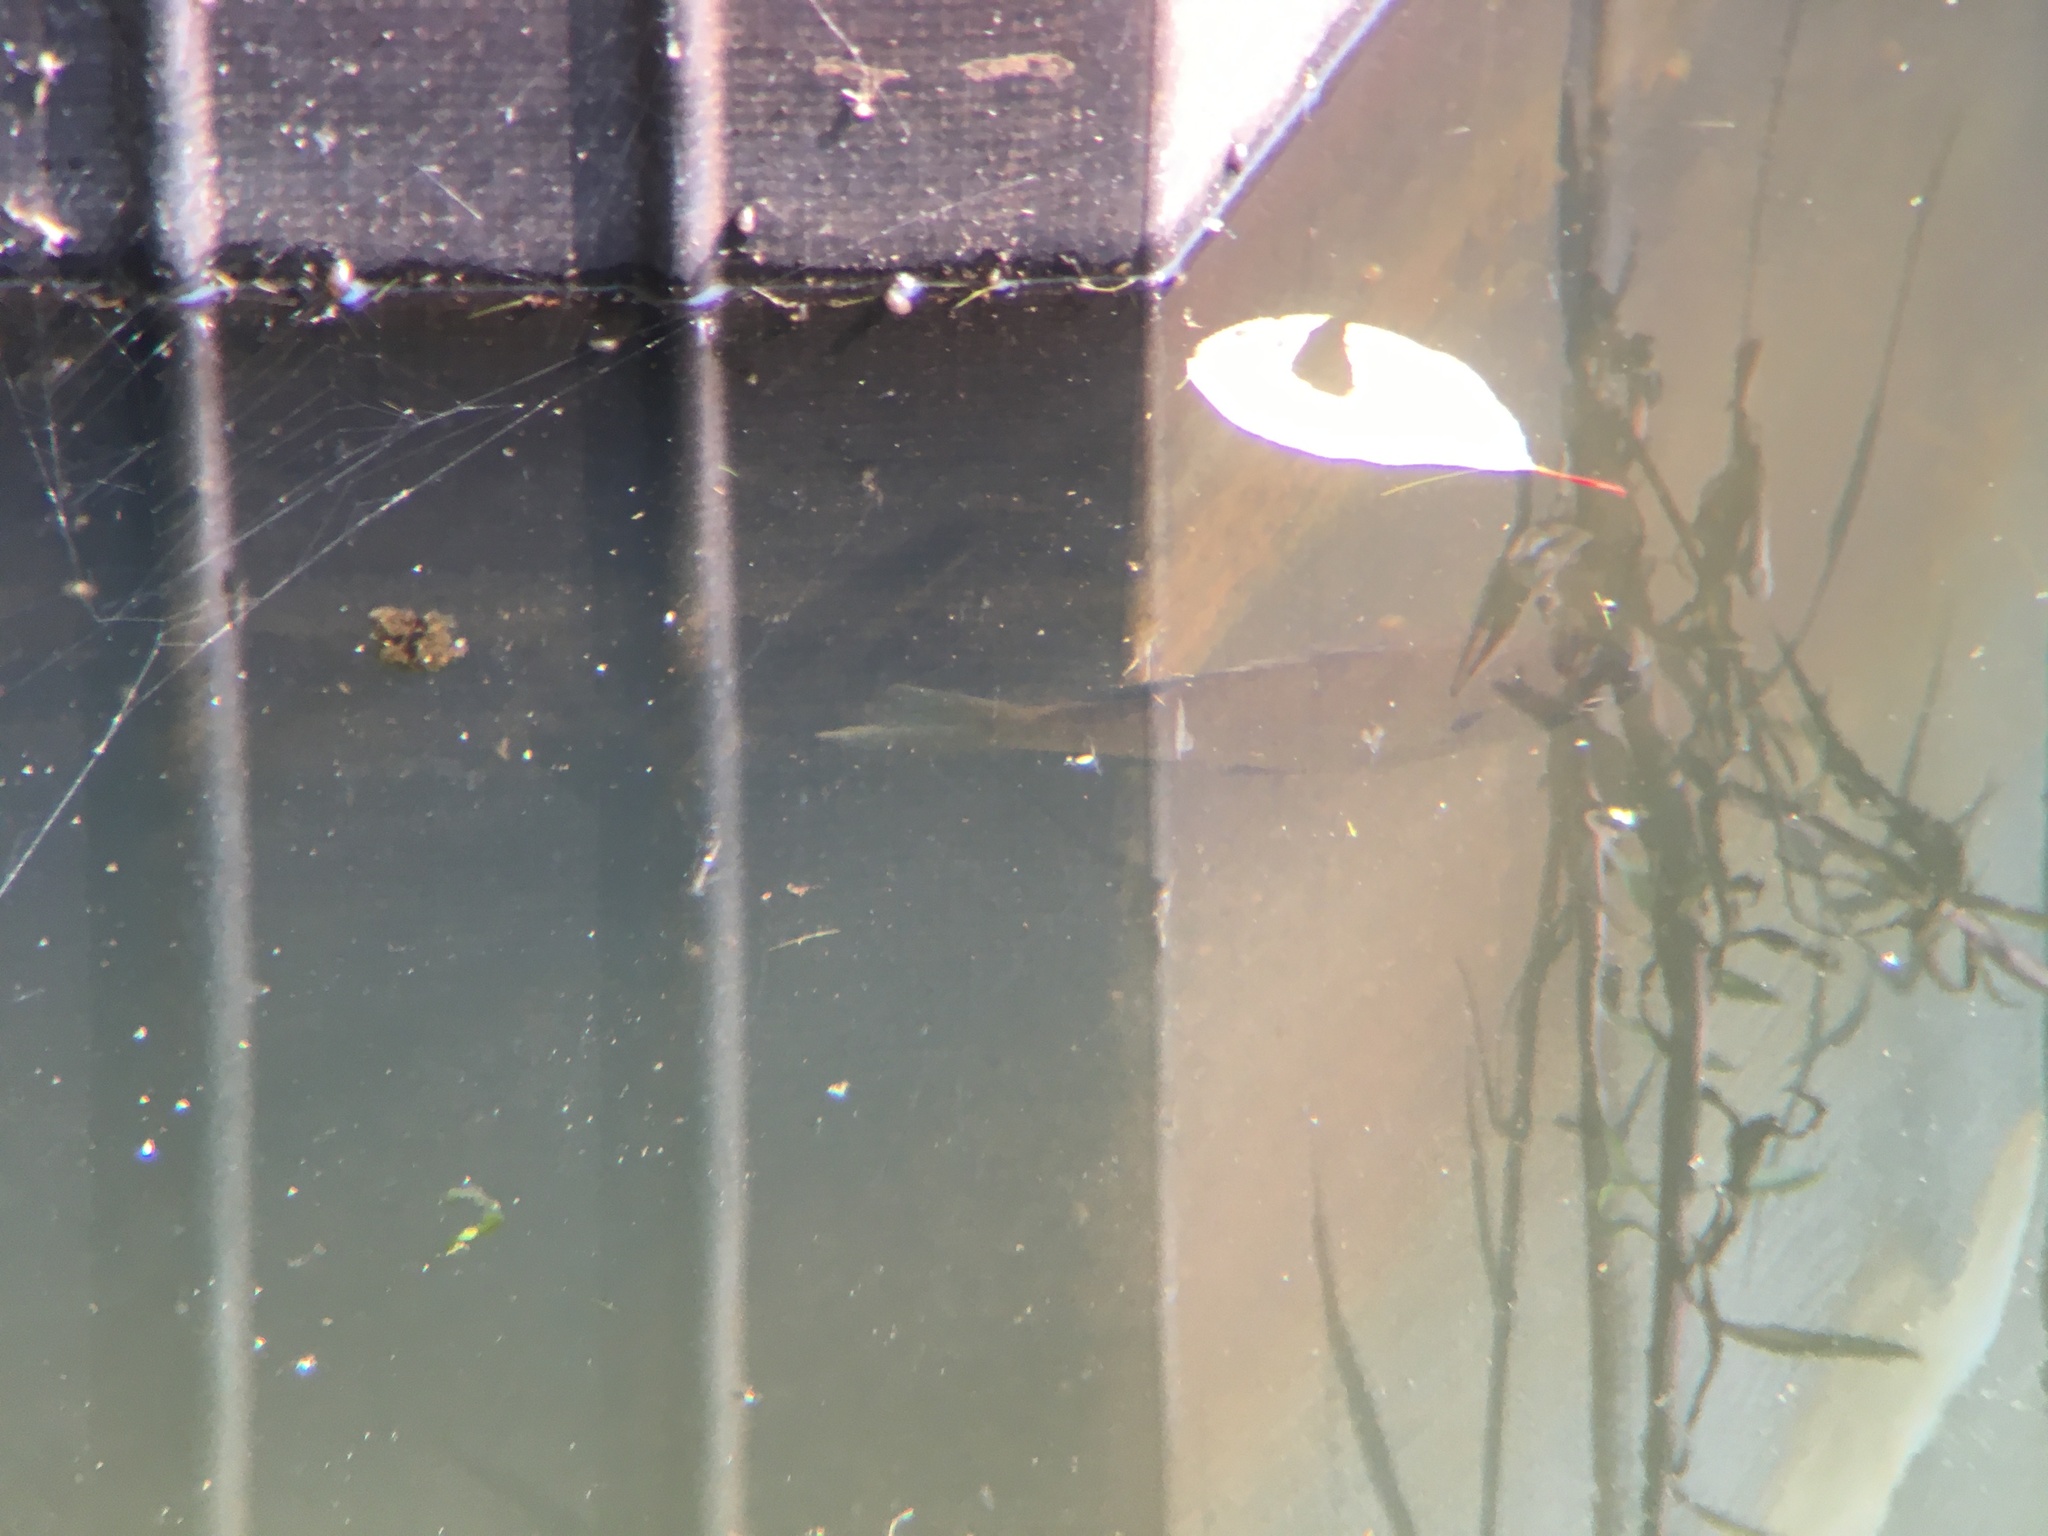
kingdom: Animalia
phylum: Chordata
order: Perciformes
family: Centrarchidae
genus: Lepomis
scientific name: Lepomis macrochirus
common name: Bluegill
